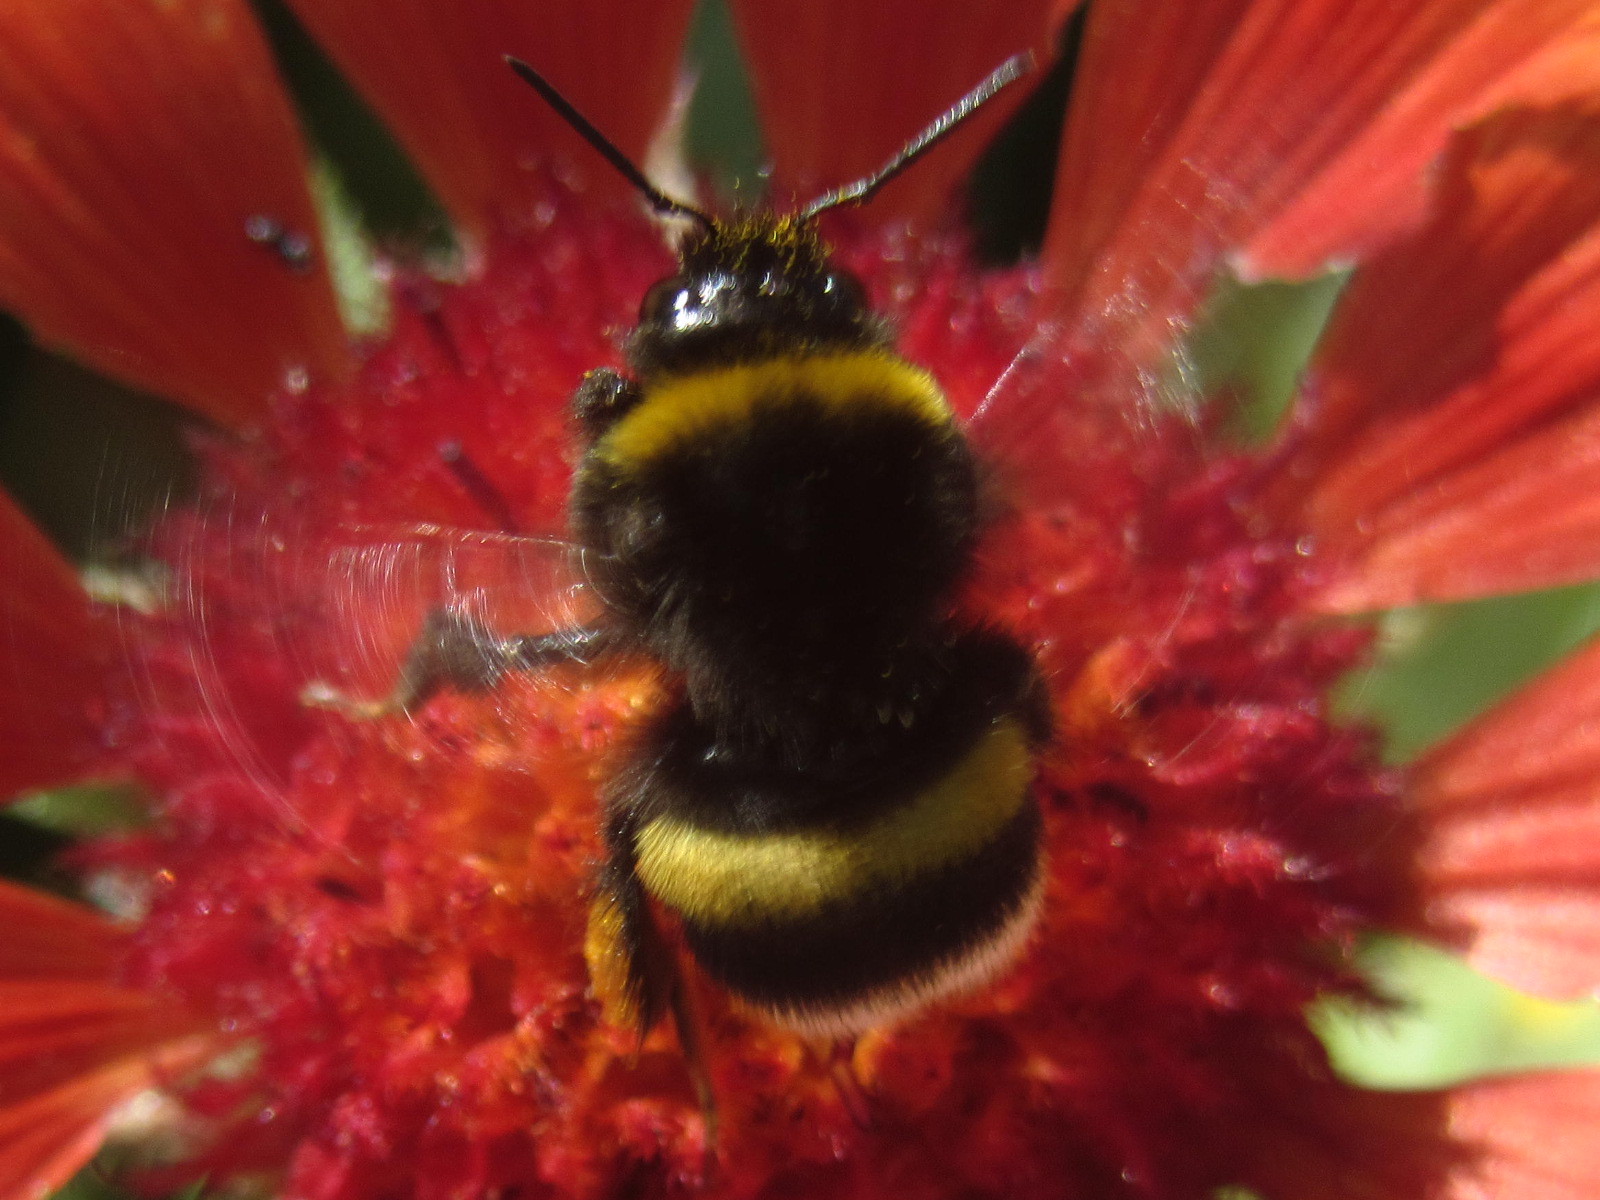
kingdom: Animalia
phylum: Arthropoda
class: Insecta
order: Hymenoptera
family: Apidae
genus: Bombus
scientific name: Bombus
